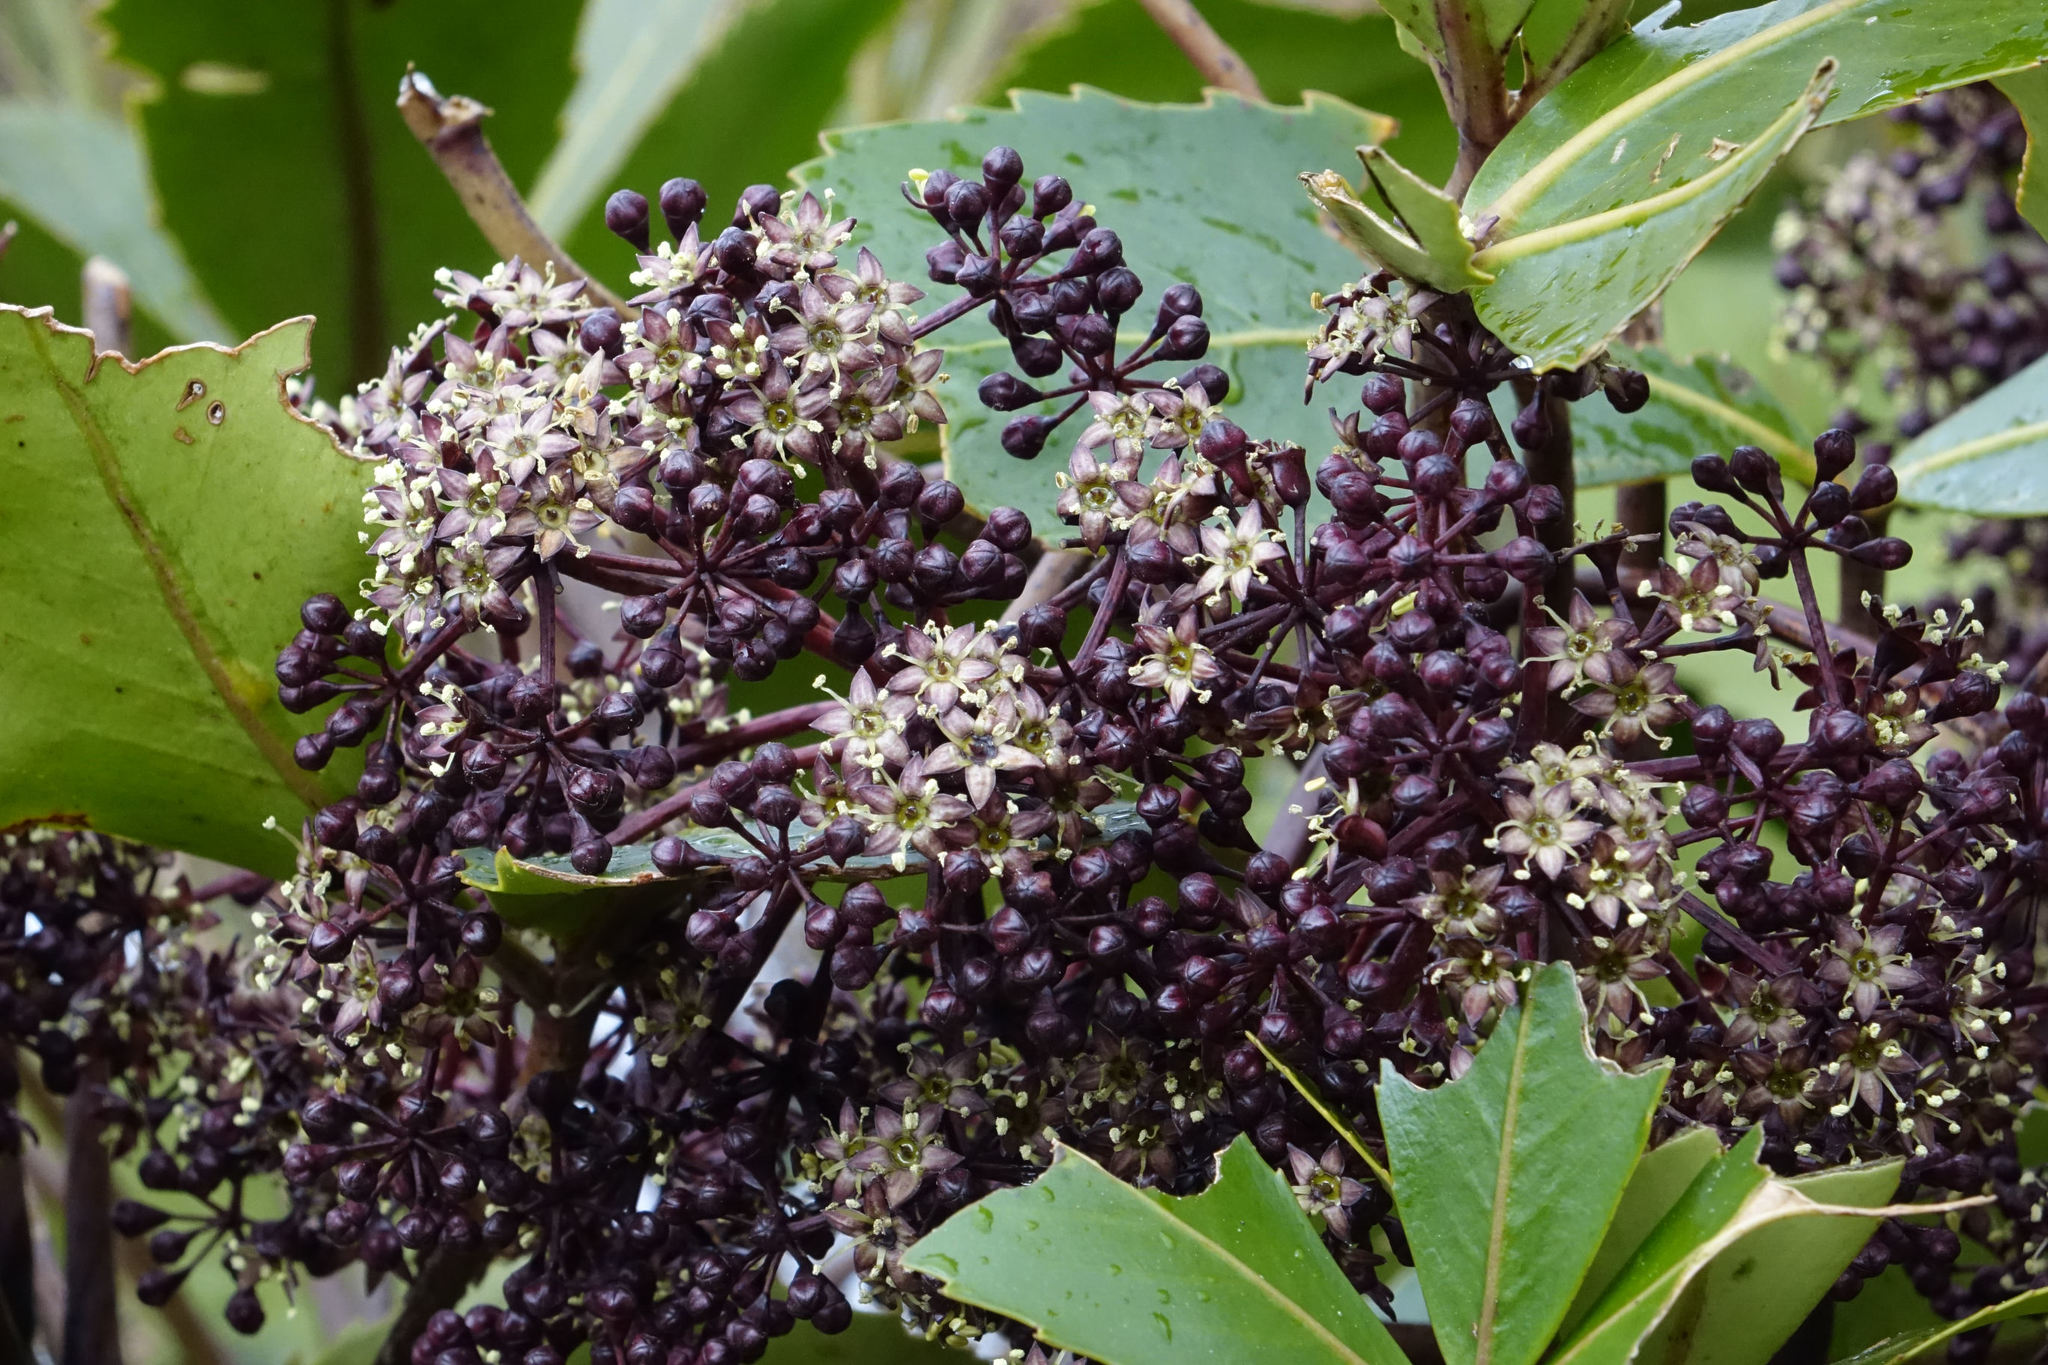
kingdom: Plantae
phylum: Tracheophyta
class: Magnoliopsida
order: Apiales
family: Araliaceae
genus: Neopanax
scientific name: Neopanax colensoi
